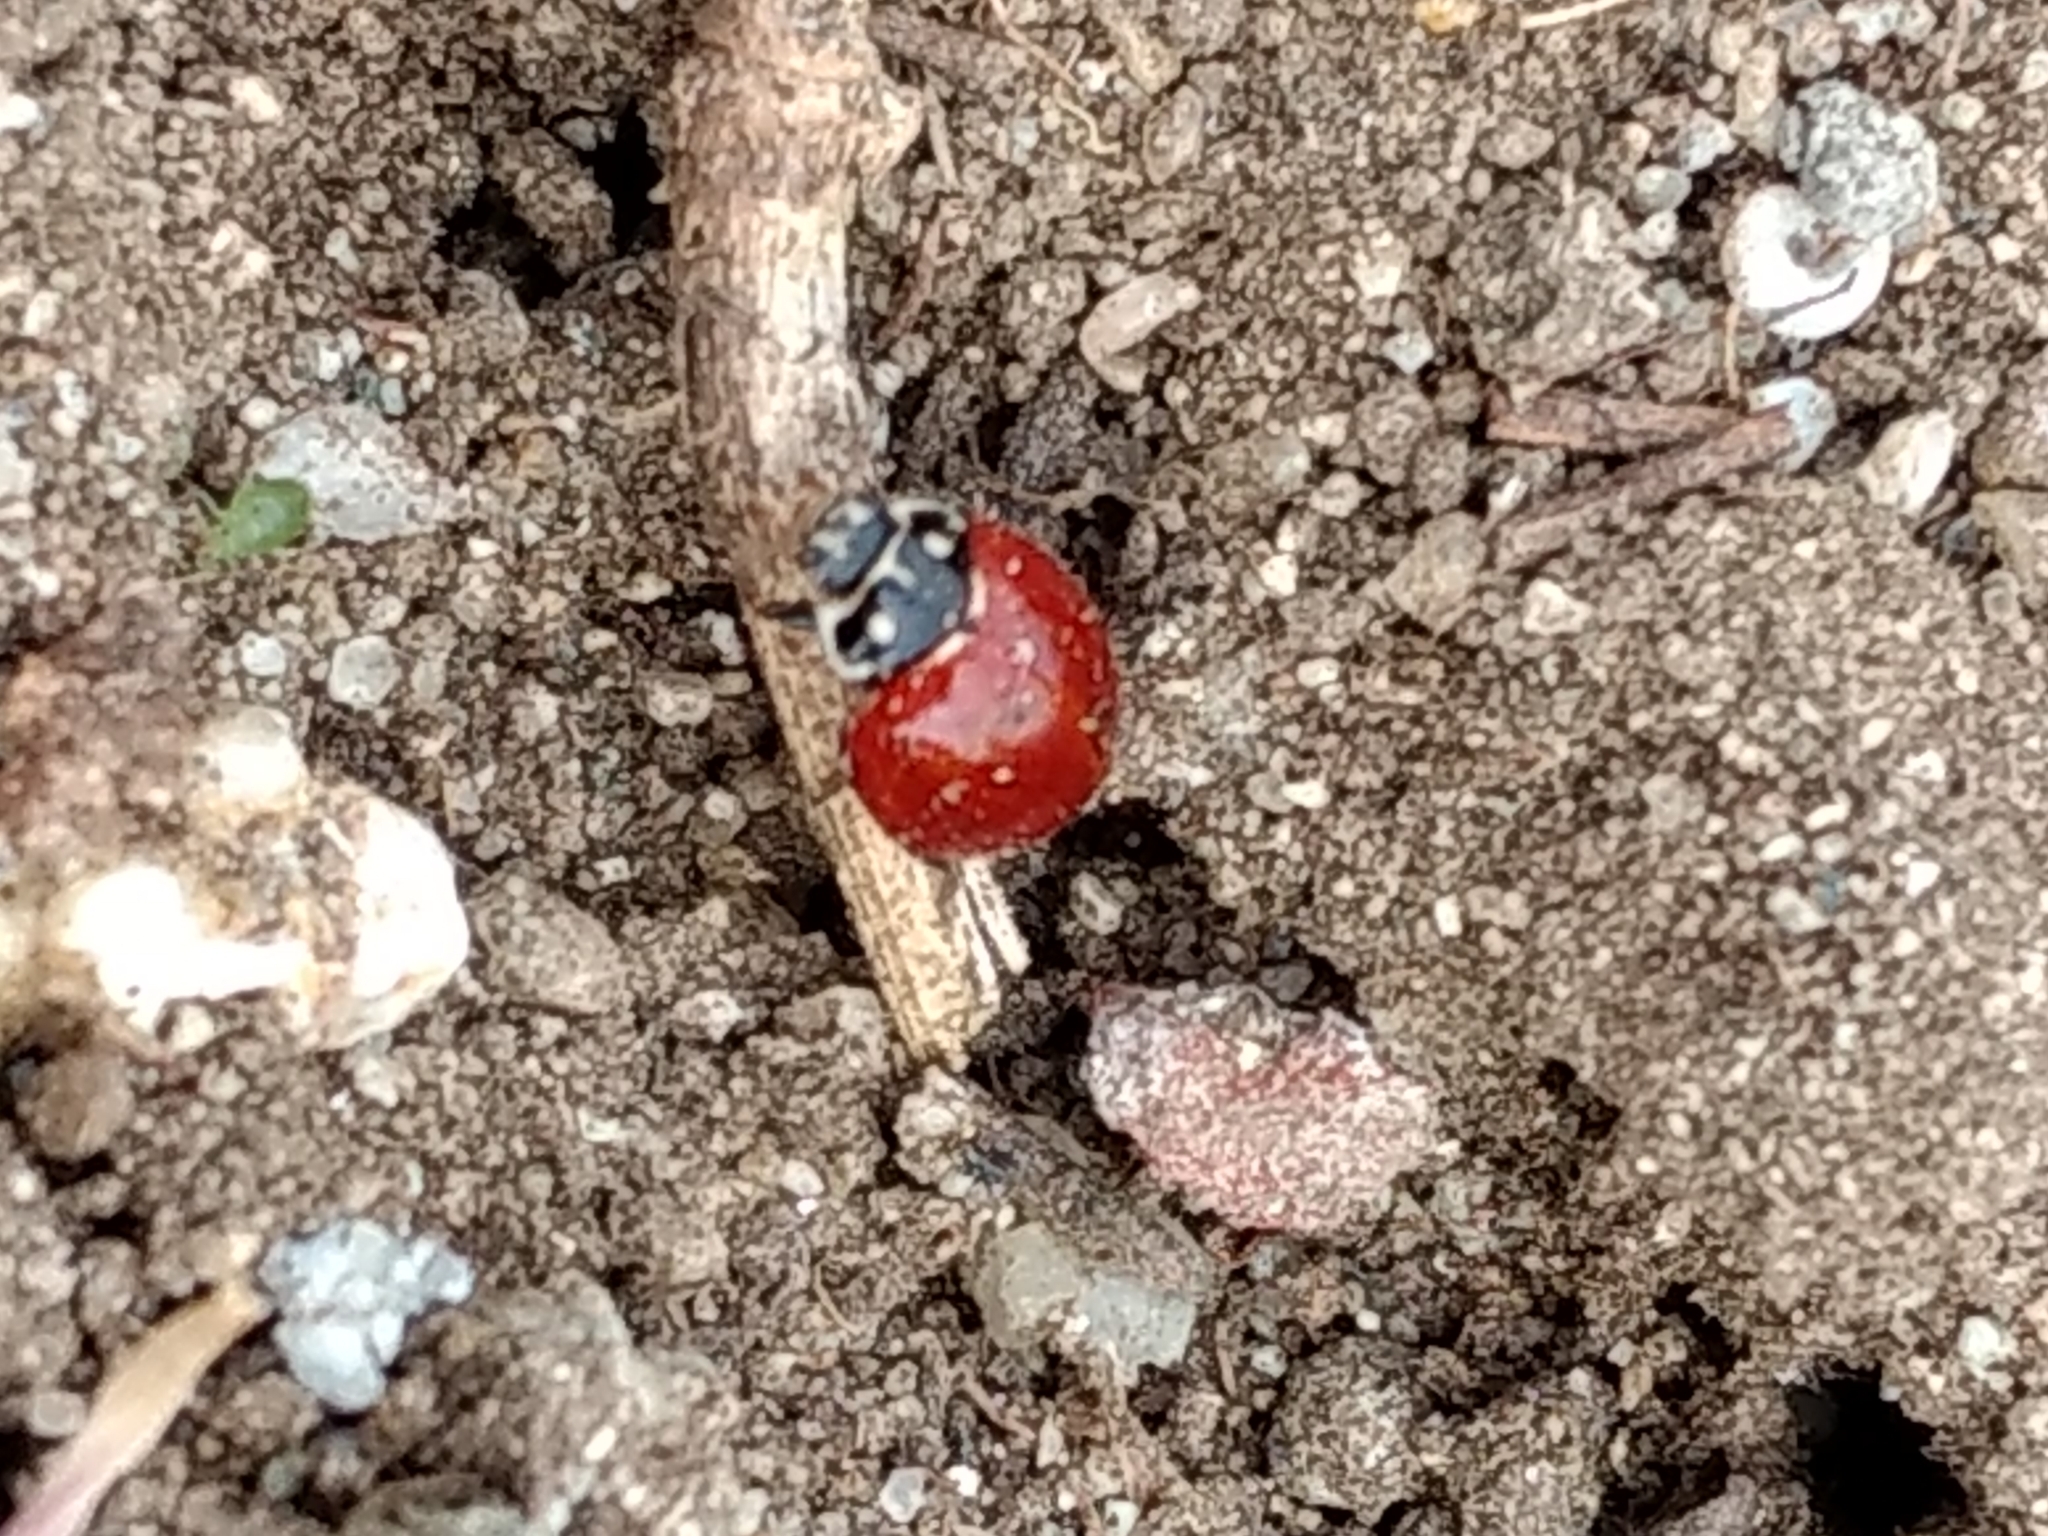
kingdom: Animalia
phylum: Arthropoda
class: Insecta
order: Coleoptera
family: Coccinellidae
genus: Cycloneda
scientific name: Cycloneda sanguinea
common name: Ladybird beetle
